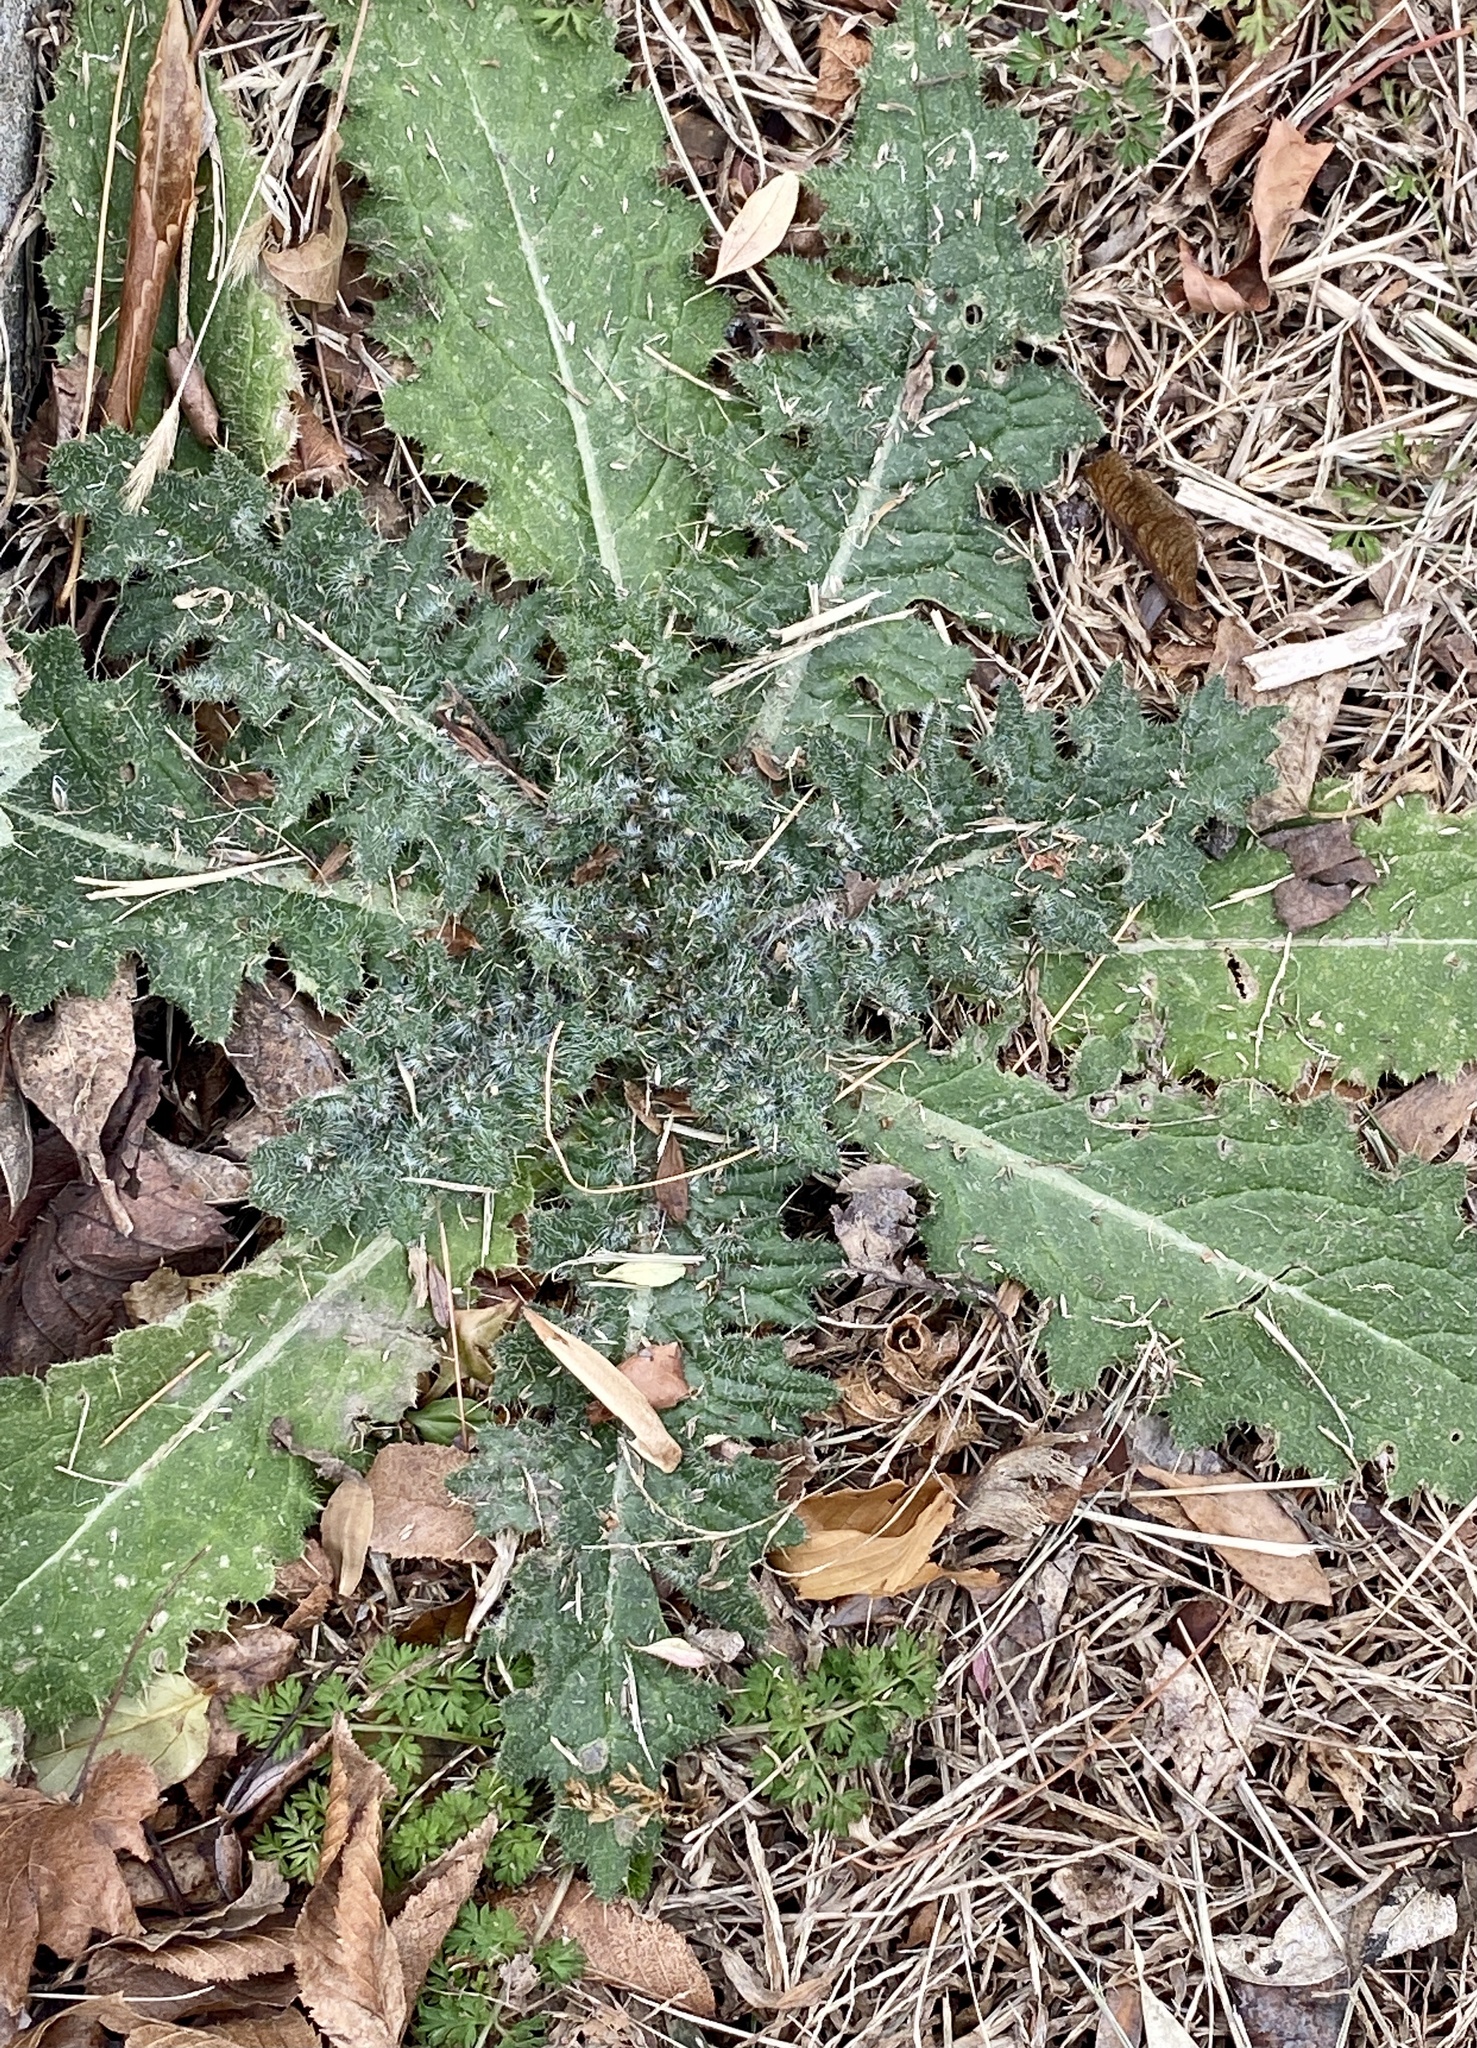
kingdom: Plantae
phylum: Tracheophyta
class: Magnoliopsida
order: Asterales
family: Asteraceae
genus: Cirsium
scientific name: Cirsium vulgare
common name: Bull thistle
